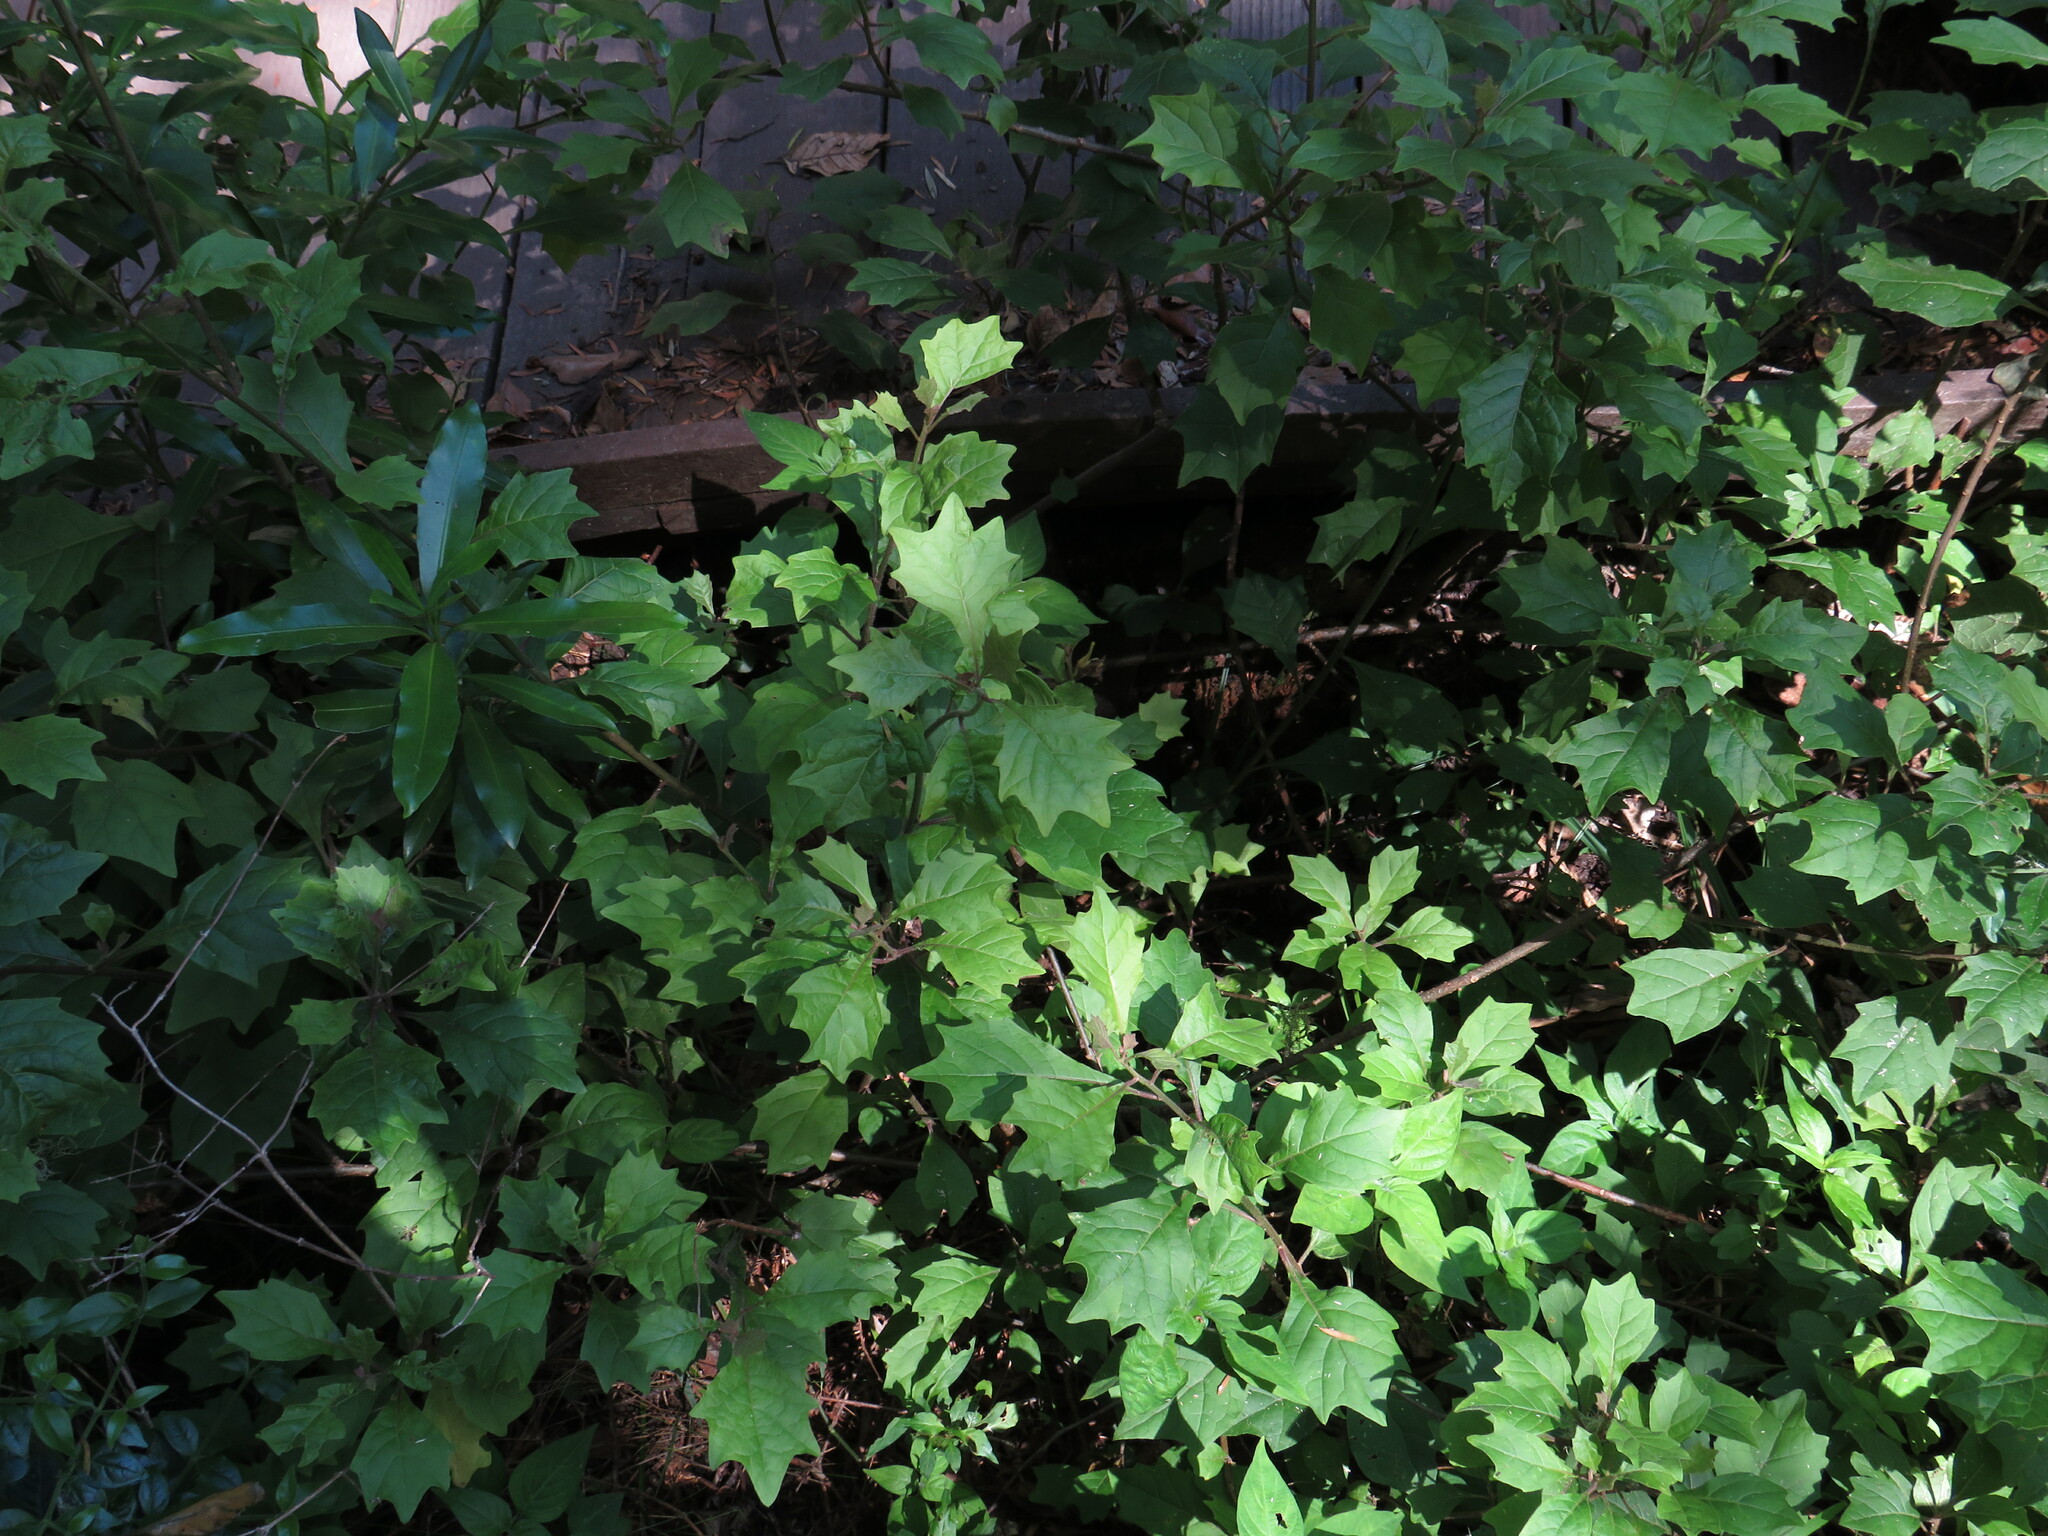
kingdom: Plantae
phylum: Tracheophyta
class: Magnoliopsida
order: Asterales
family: Asteraceae
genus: Gymnanthemum
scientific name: Gymnanthemum capense
